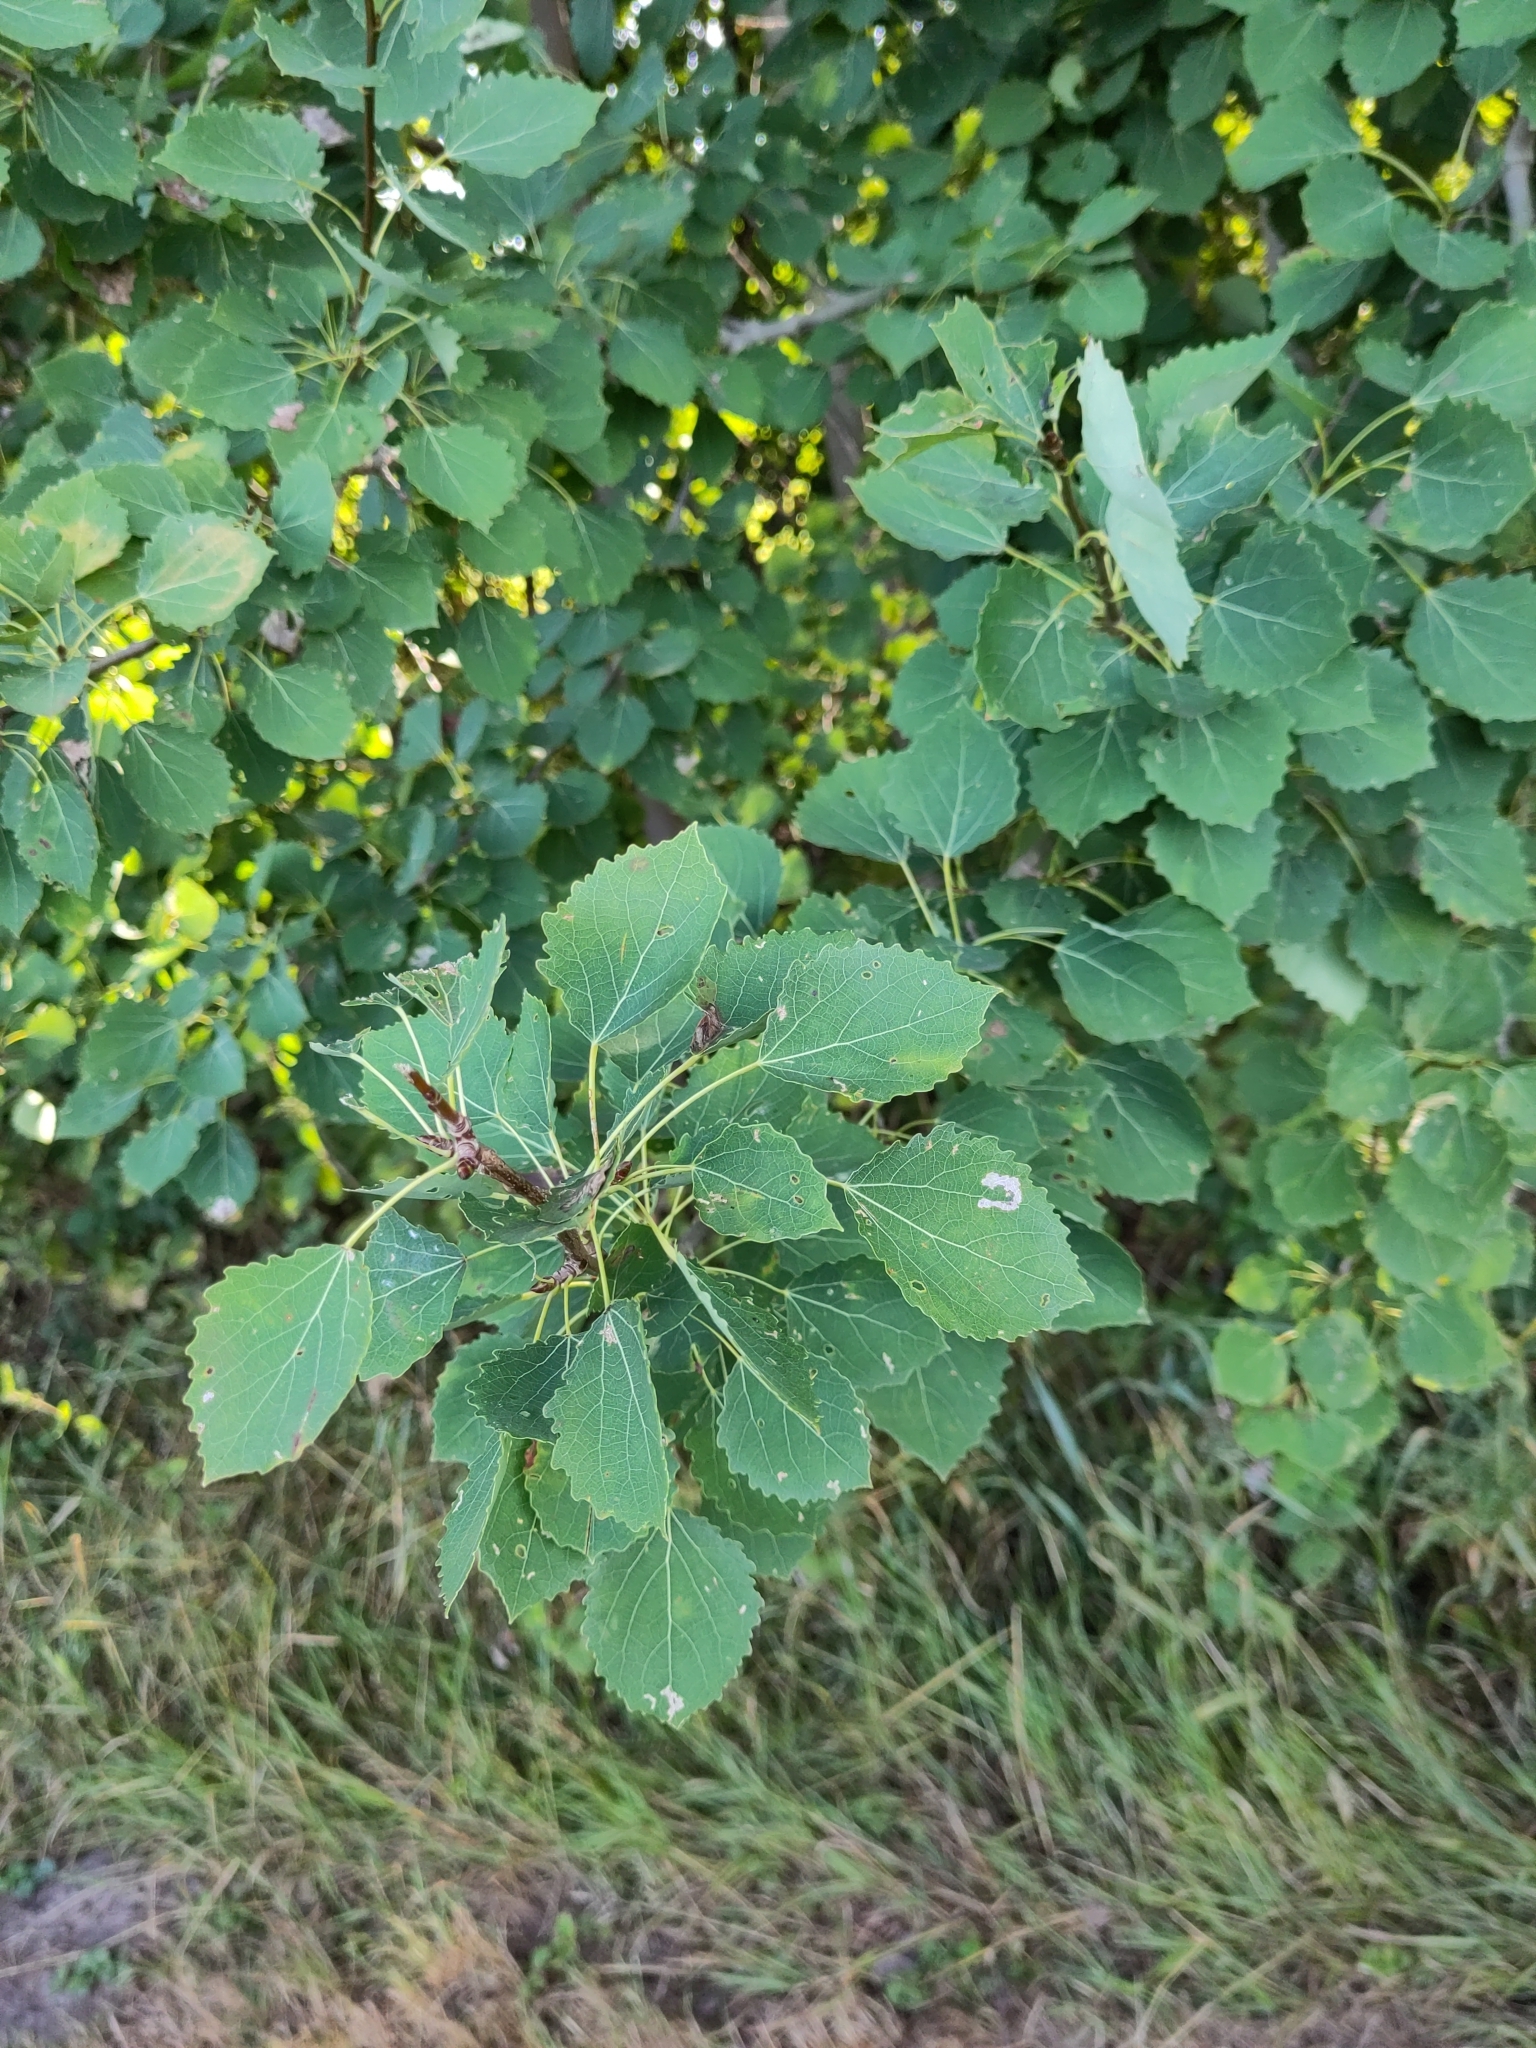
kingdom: Plantae
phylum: Tracheophyta
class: Magnoliopsida
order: Malpighiales
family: Salicaceae
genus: Populus
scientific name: Populus tremula
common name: European aspen
